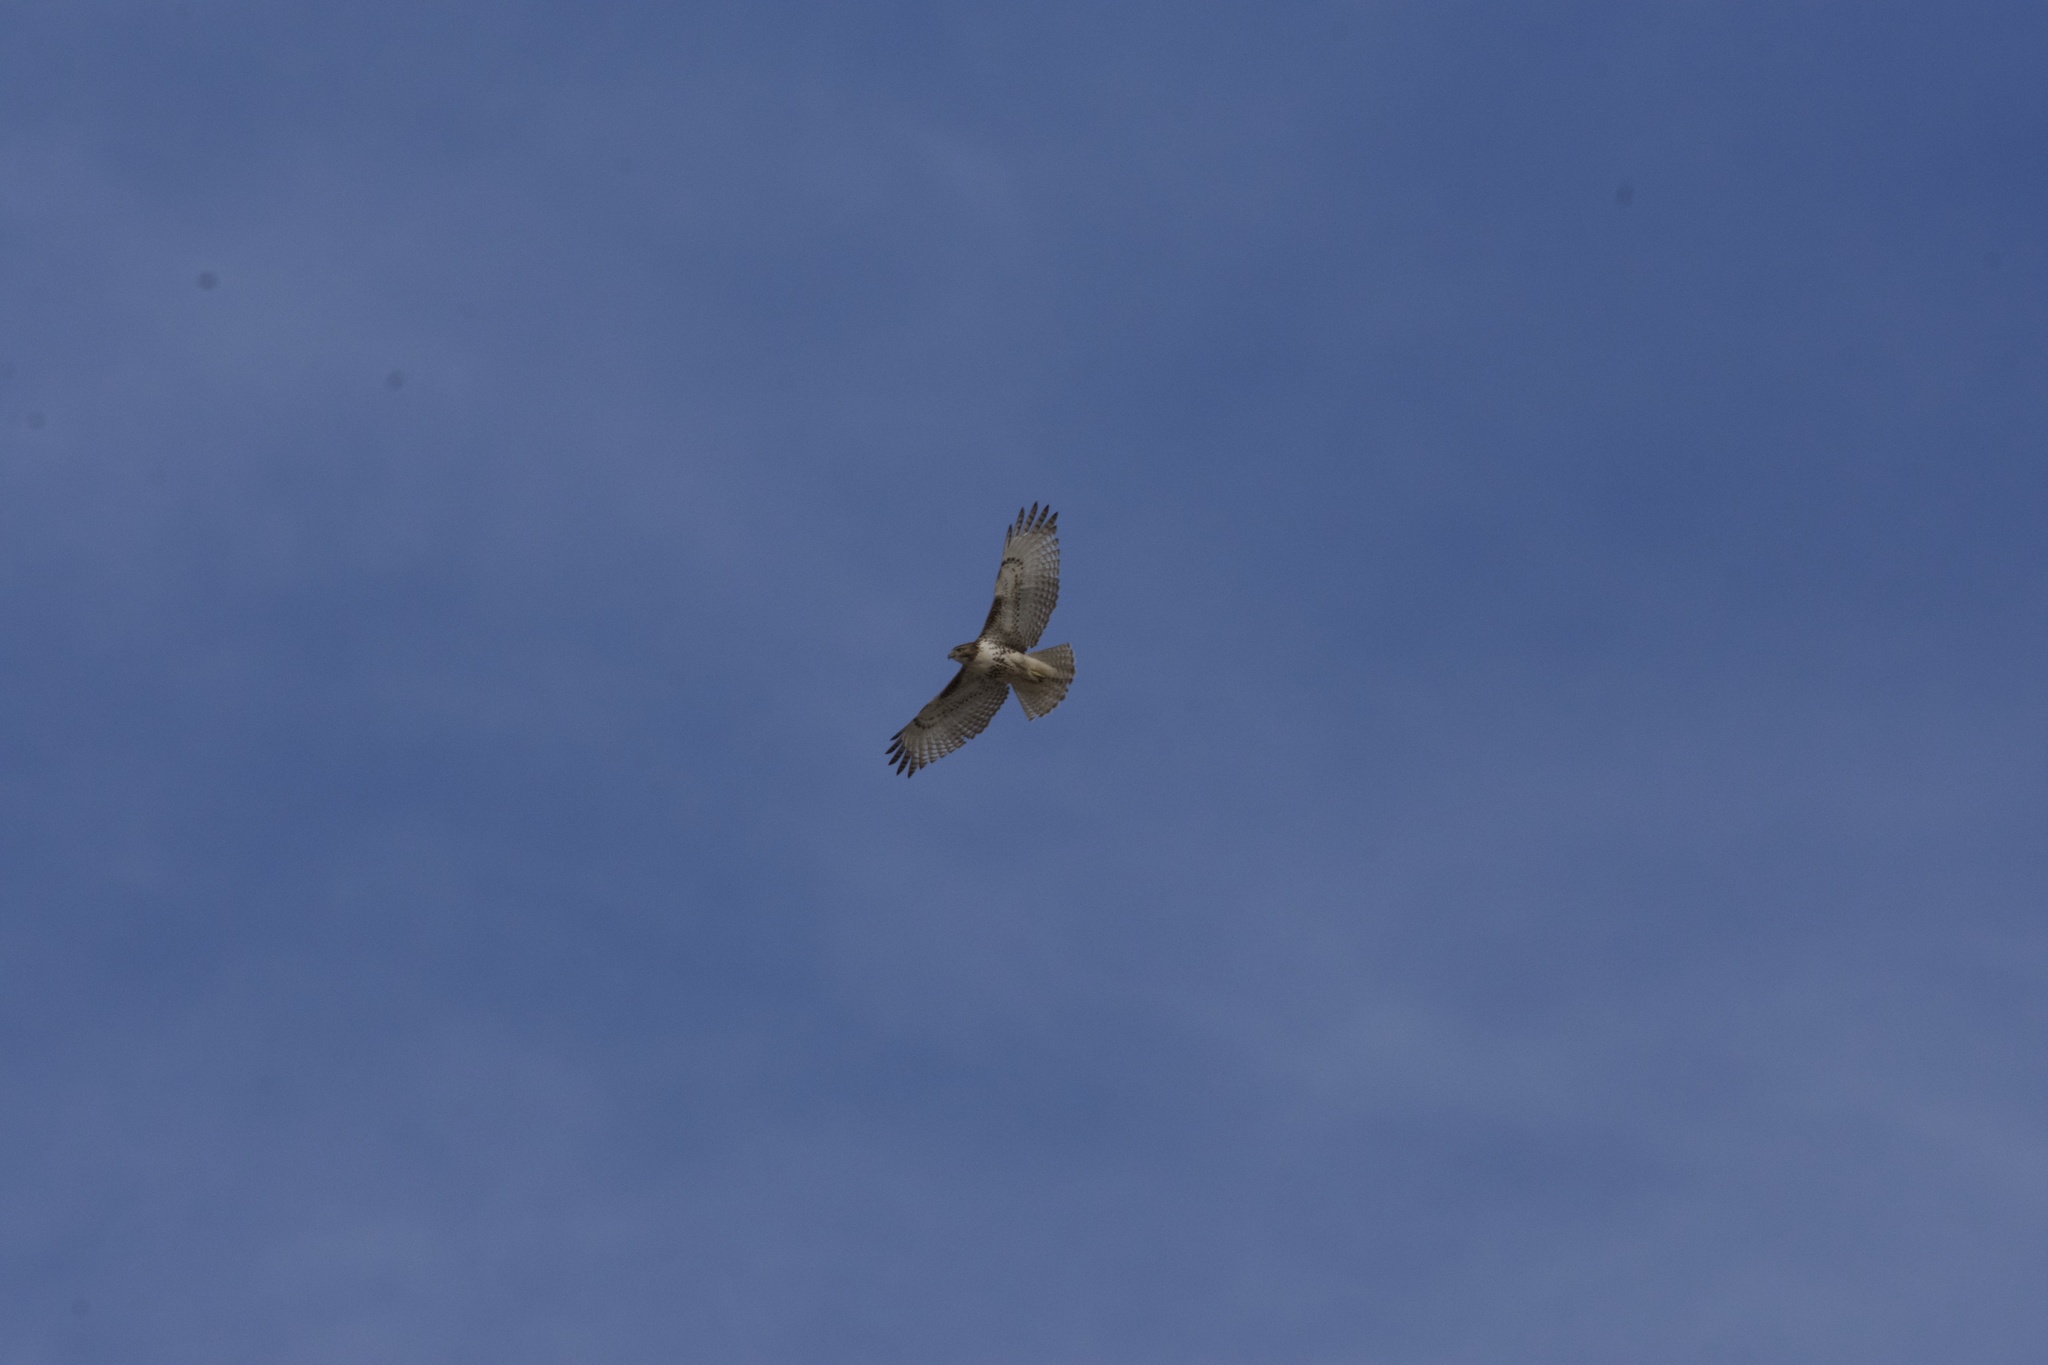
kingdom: Animalia
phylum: Chordata
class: Aves
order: Accipitriformes
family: Accipitridae
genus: Buteo
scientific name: Buteo jamaicensis
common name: Red-tailed hawk
